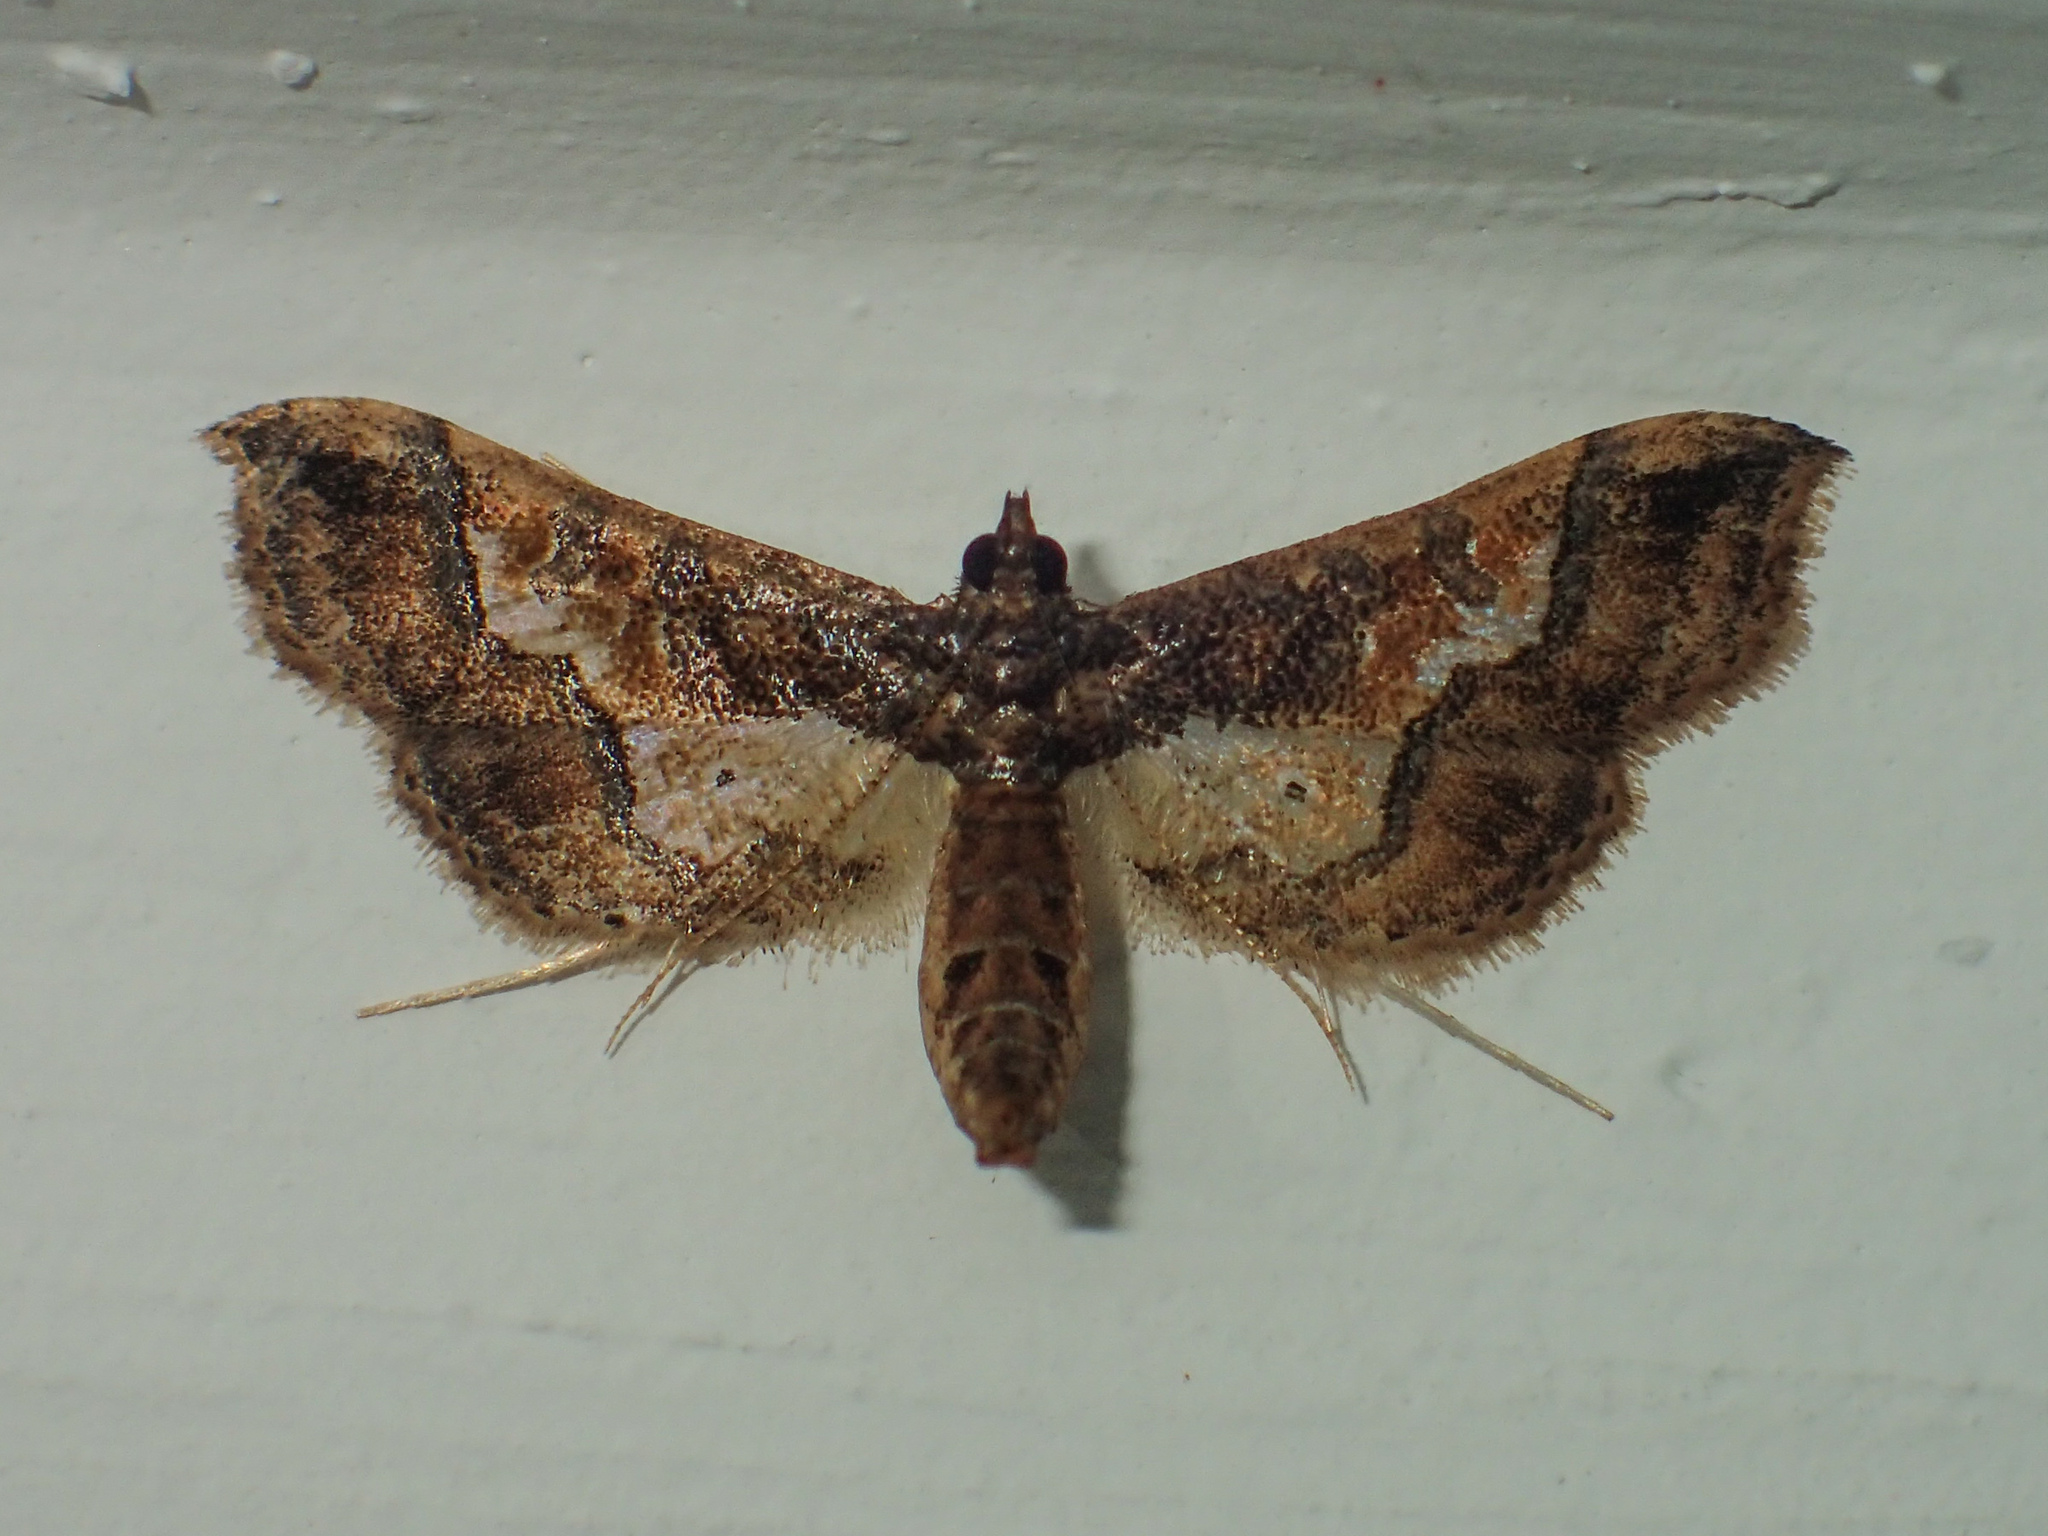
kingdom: Animalia
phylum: Arthropoda
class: Insecta
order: Lepidoptera
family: Crambidae
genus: Hydriris
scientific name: Hydriris ornatalis
